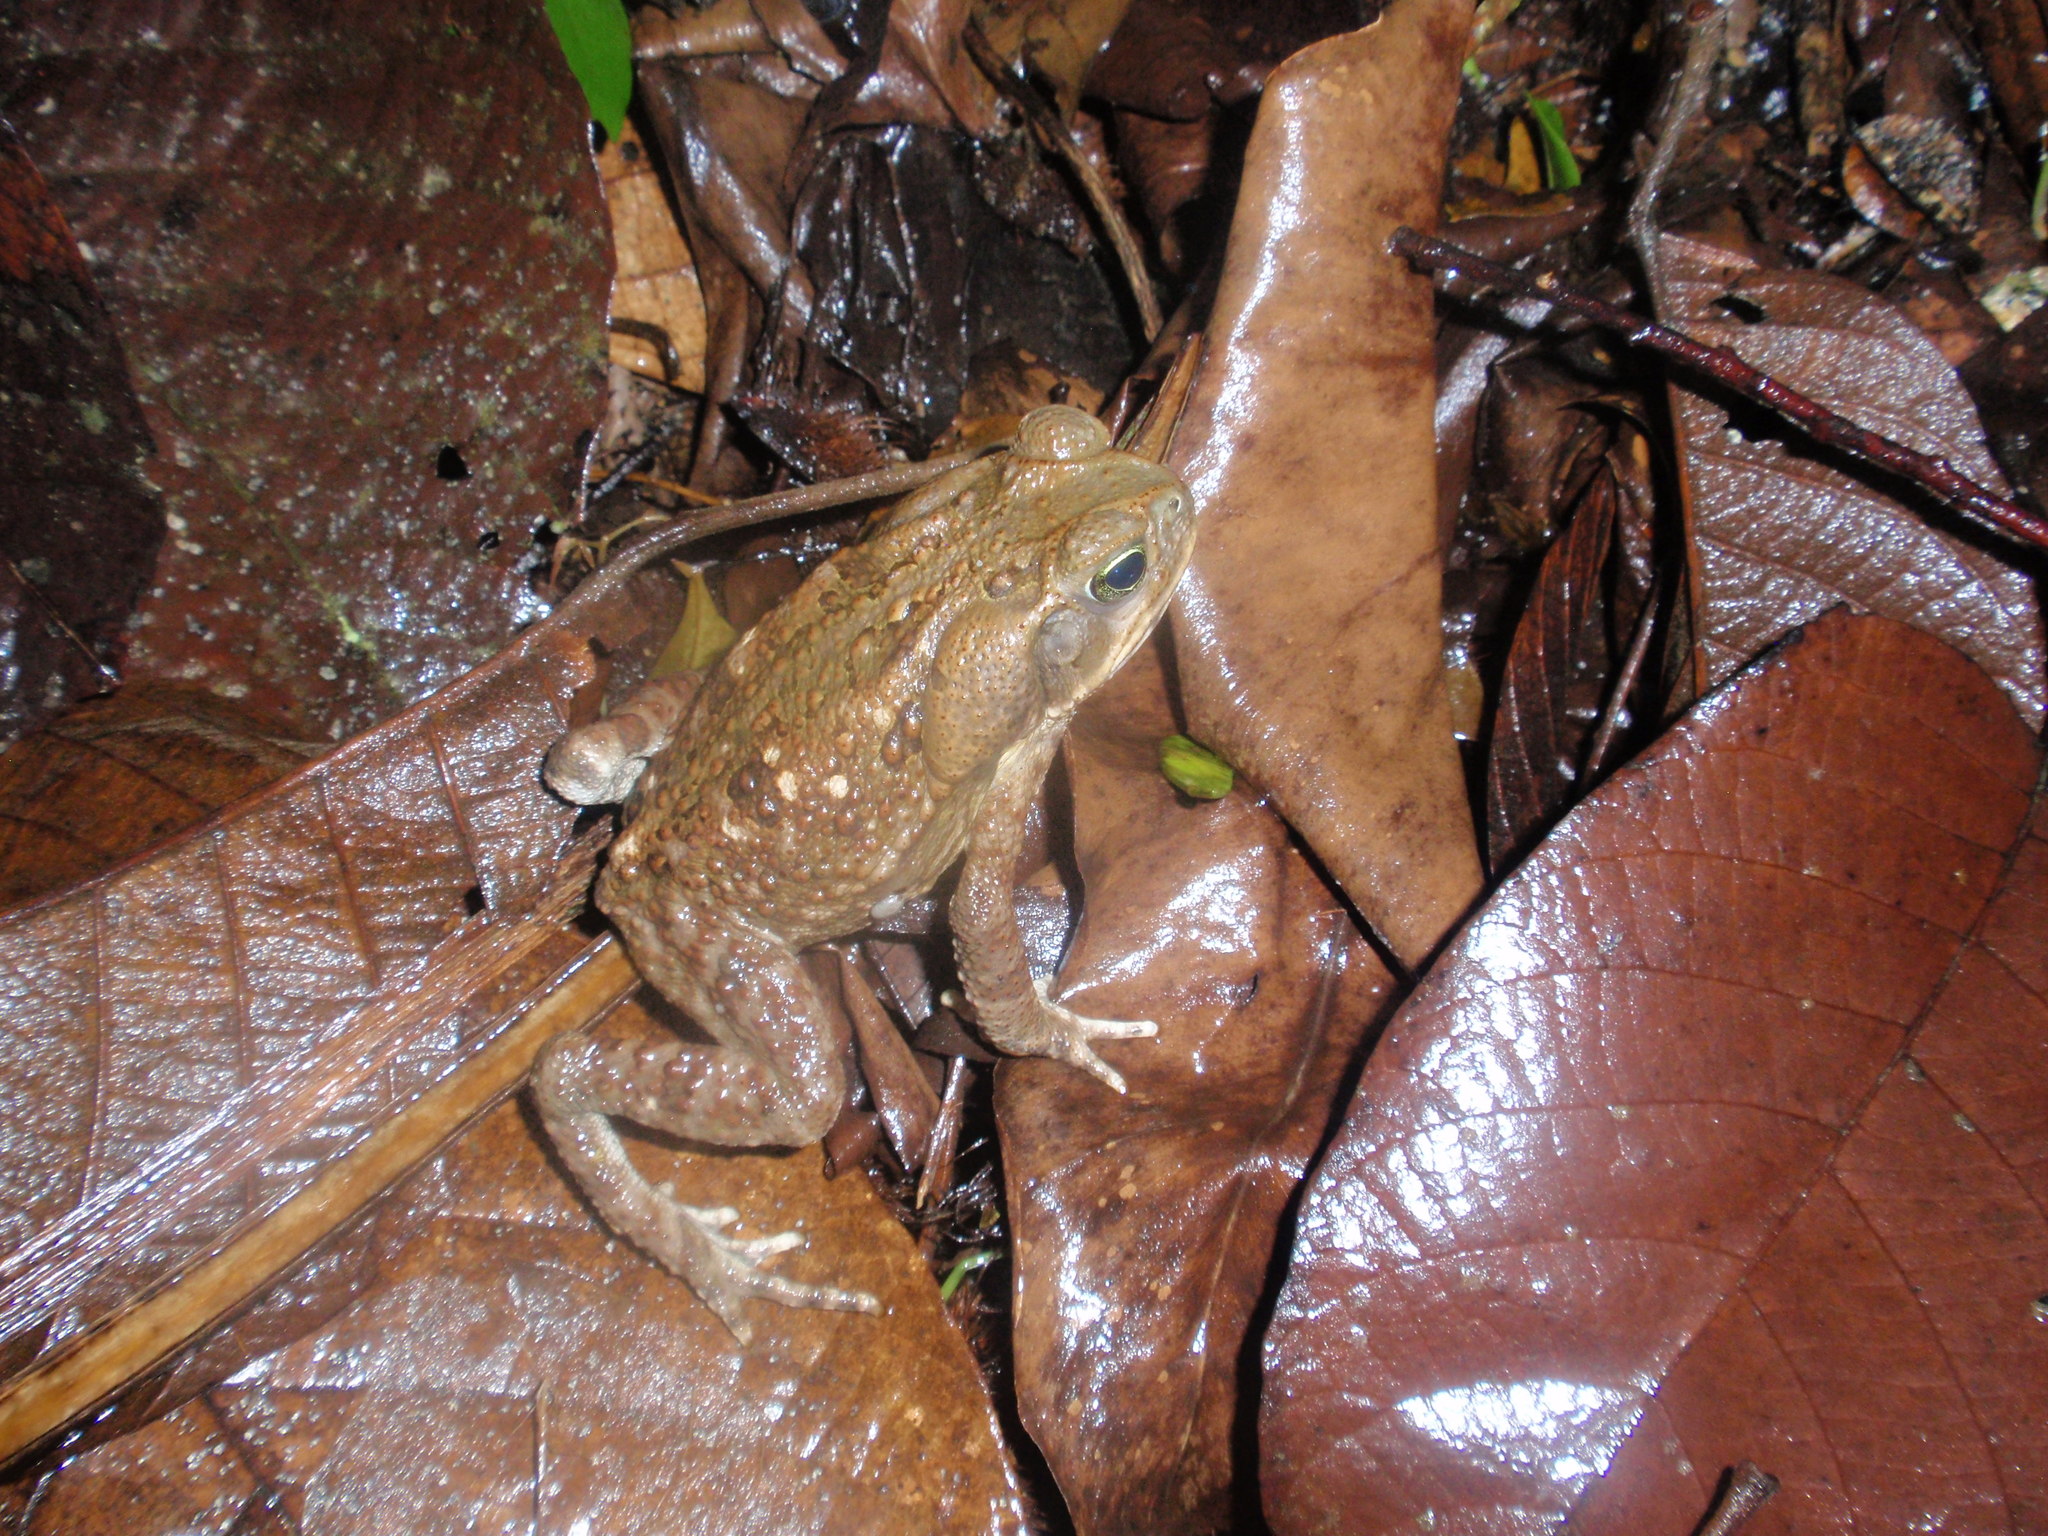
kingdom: Animalia
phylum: Chordata
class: Amphibia
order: Anura
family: Bufonidae
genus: Rhinella
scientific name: Rhinella horribilis
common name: Mesoamerican cane toad
